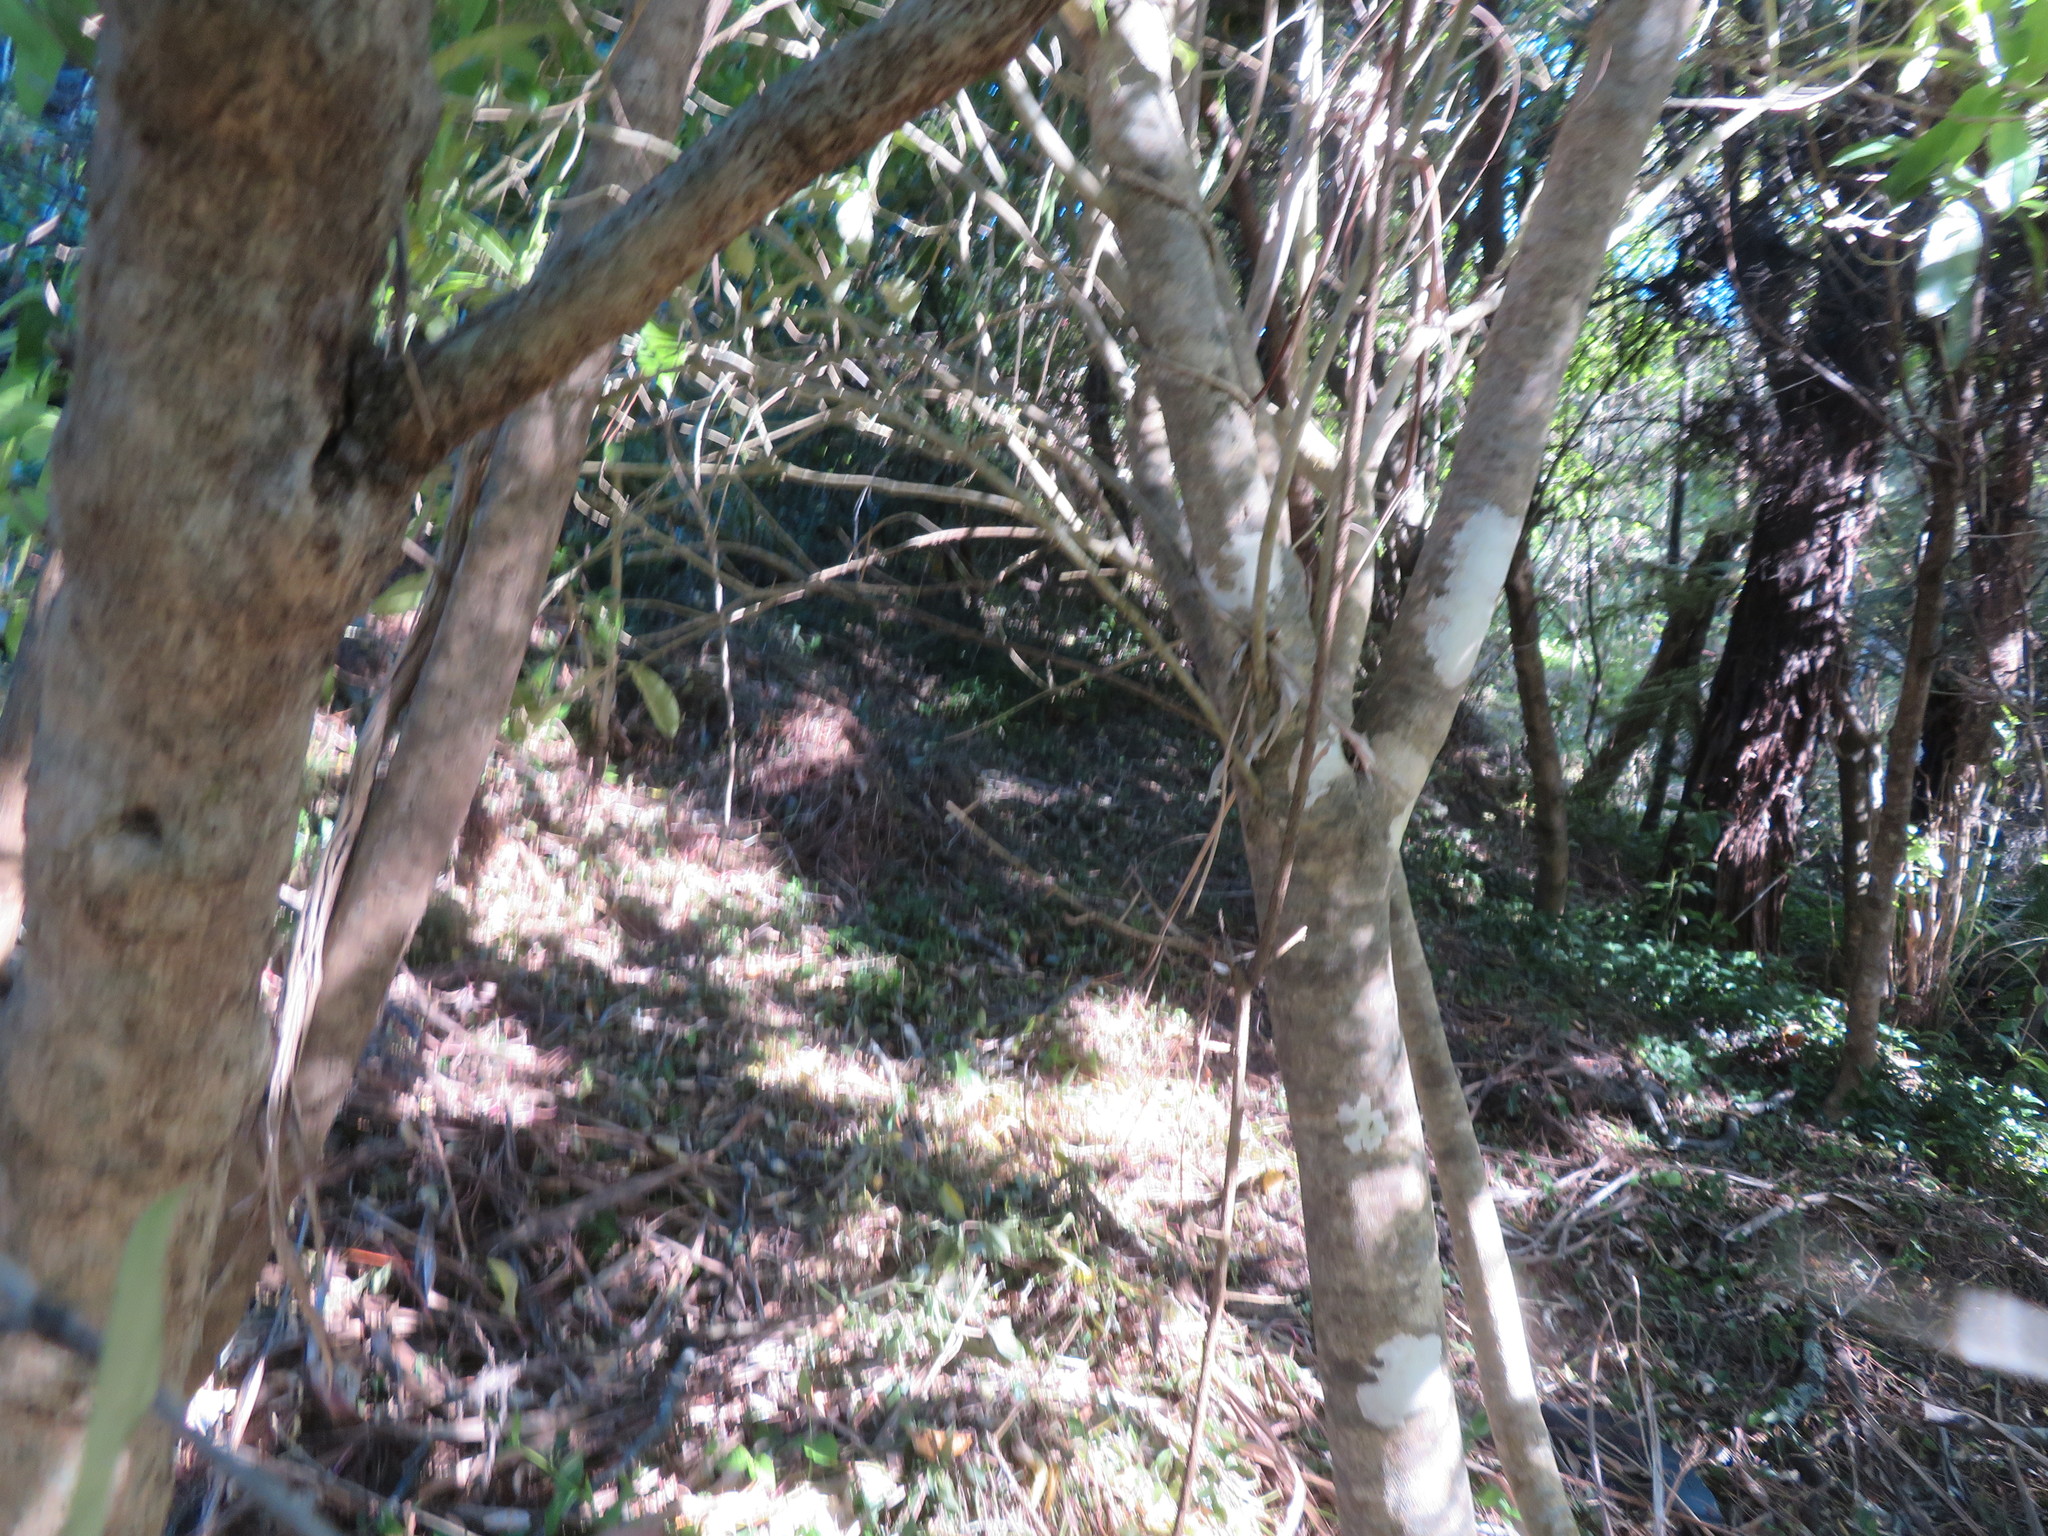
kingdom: Plantae
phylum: Tracheophyta
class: Magnoliopsida
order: Malpighiales
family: Violaceae
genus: Melicytus
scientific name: Melicytus ramiflorus
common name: Mahoe
